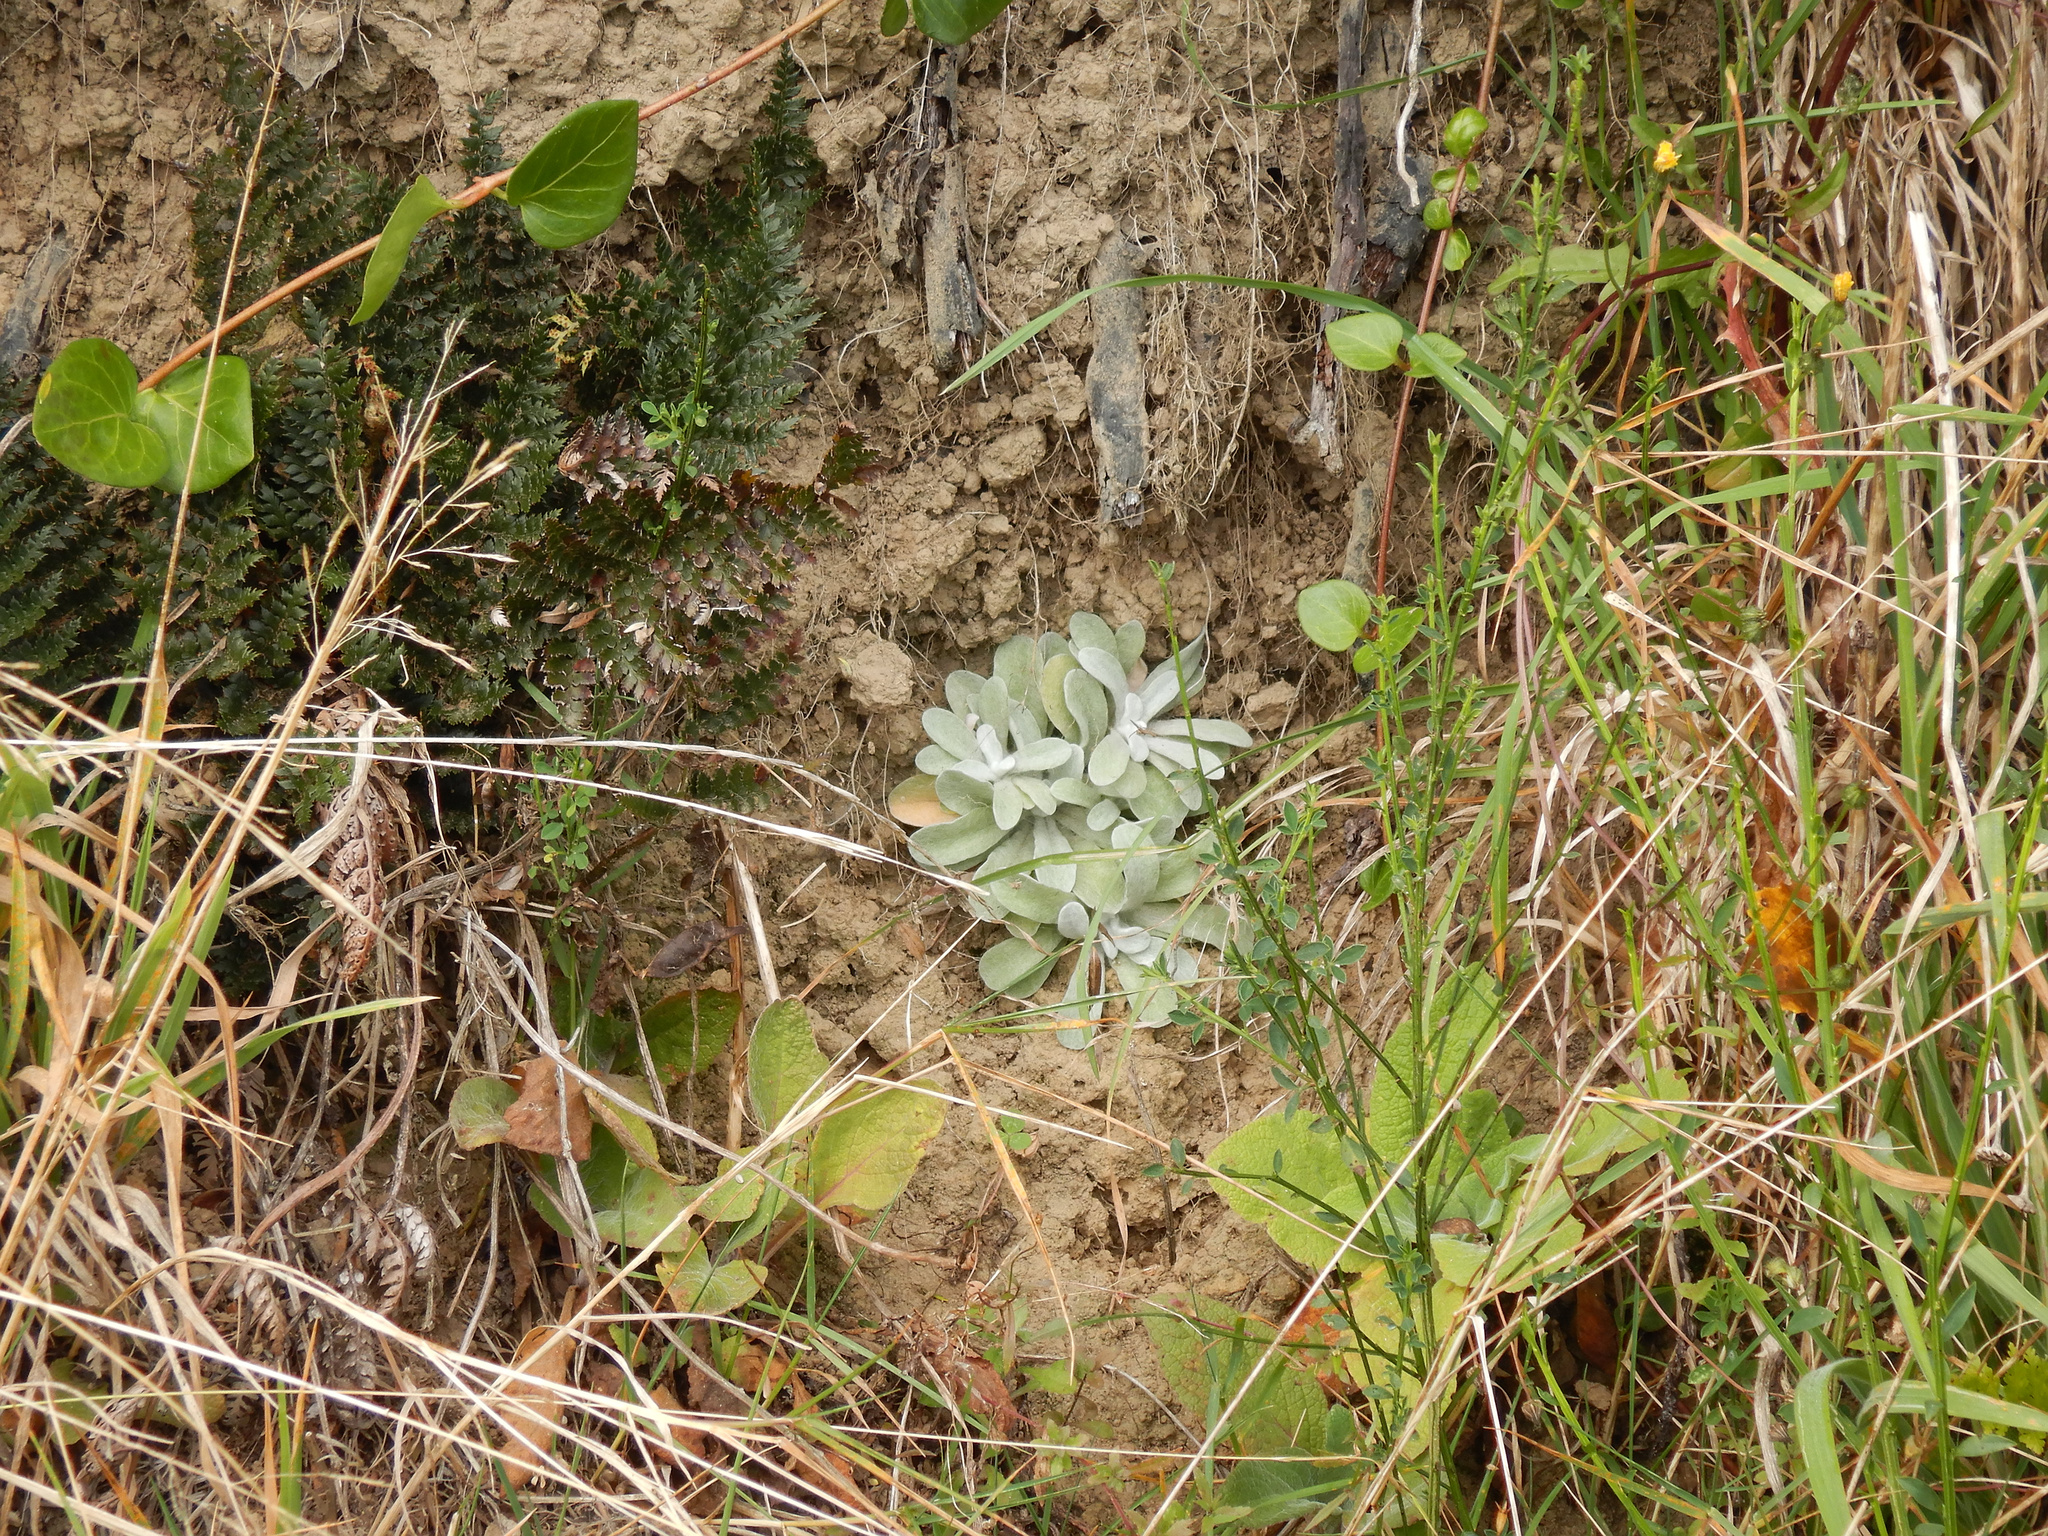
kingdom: Plantae
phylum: Tracheophyta
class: Magnoliopsida
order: Asterales
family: Asteraceae
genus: Helichrysum
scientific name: Helichrysum luteoalbum
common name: Daisy
